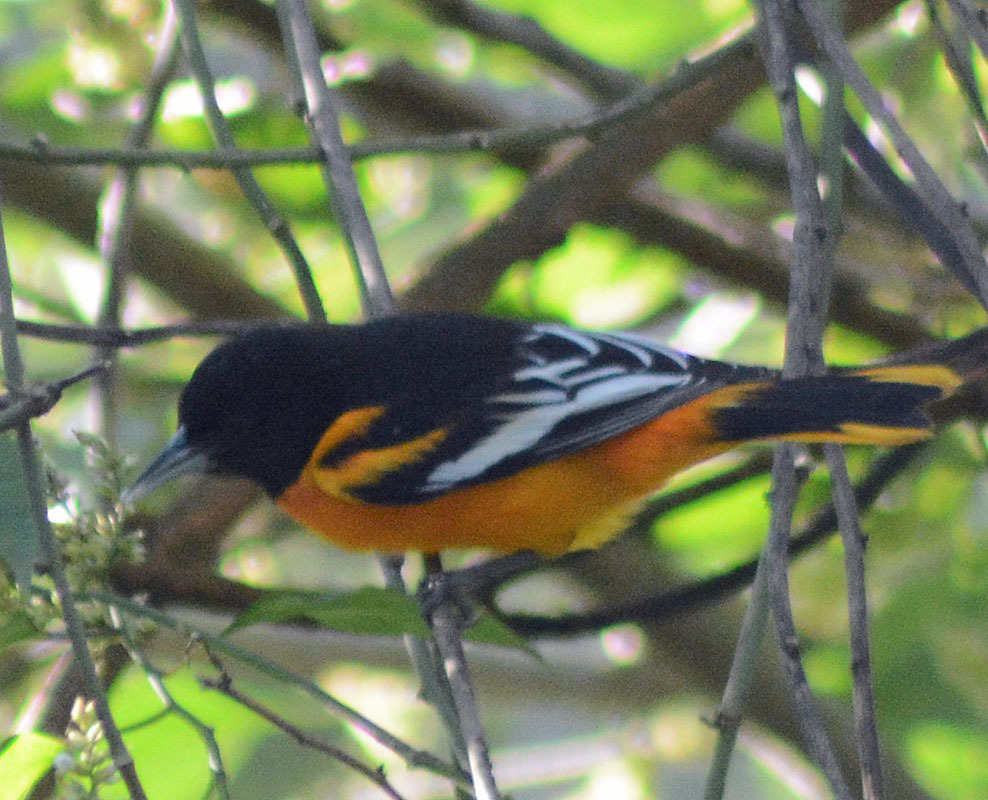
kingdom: Animalia
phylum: Chordata
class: Aves
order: Passeriformes
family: Icteridae
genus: Icterus
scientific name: Icterus galbula
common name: Baltimore oriole
